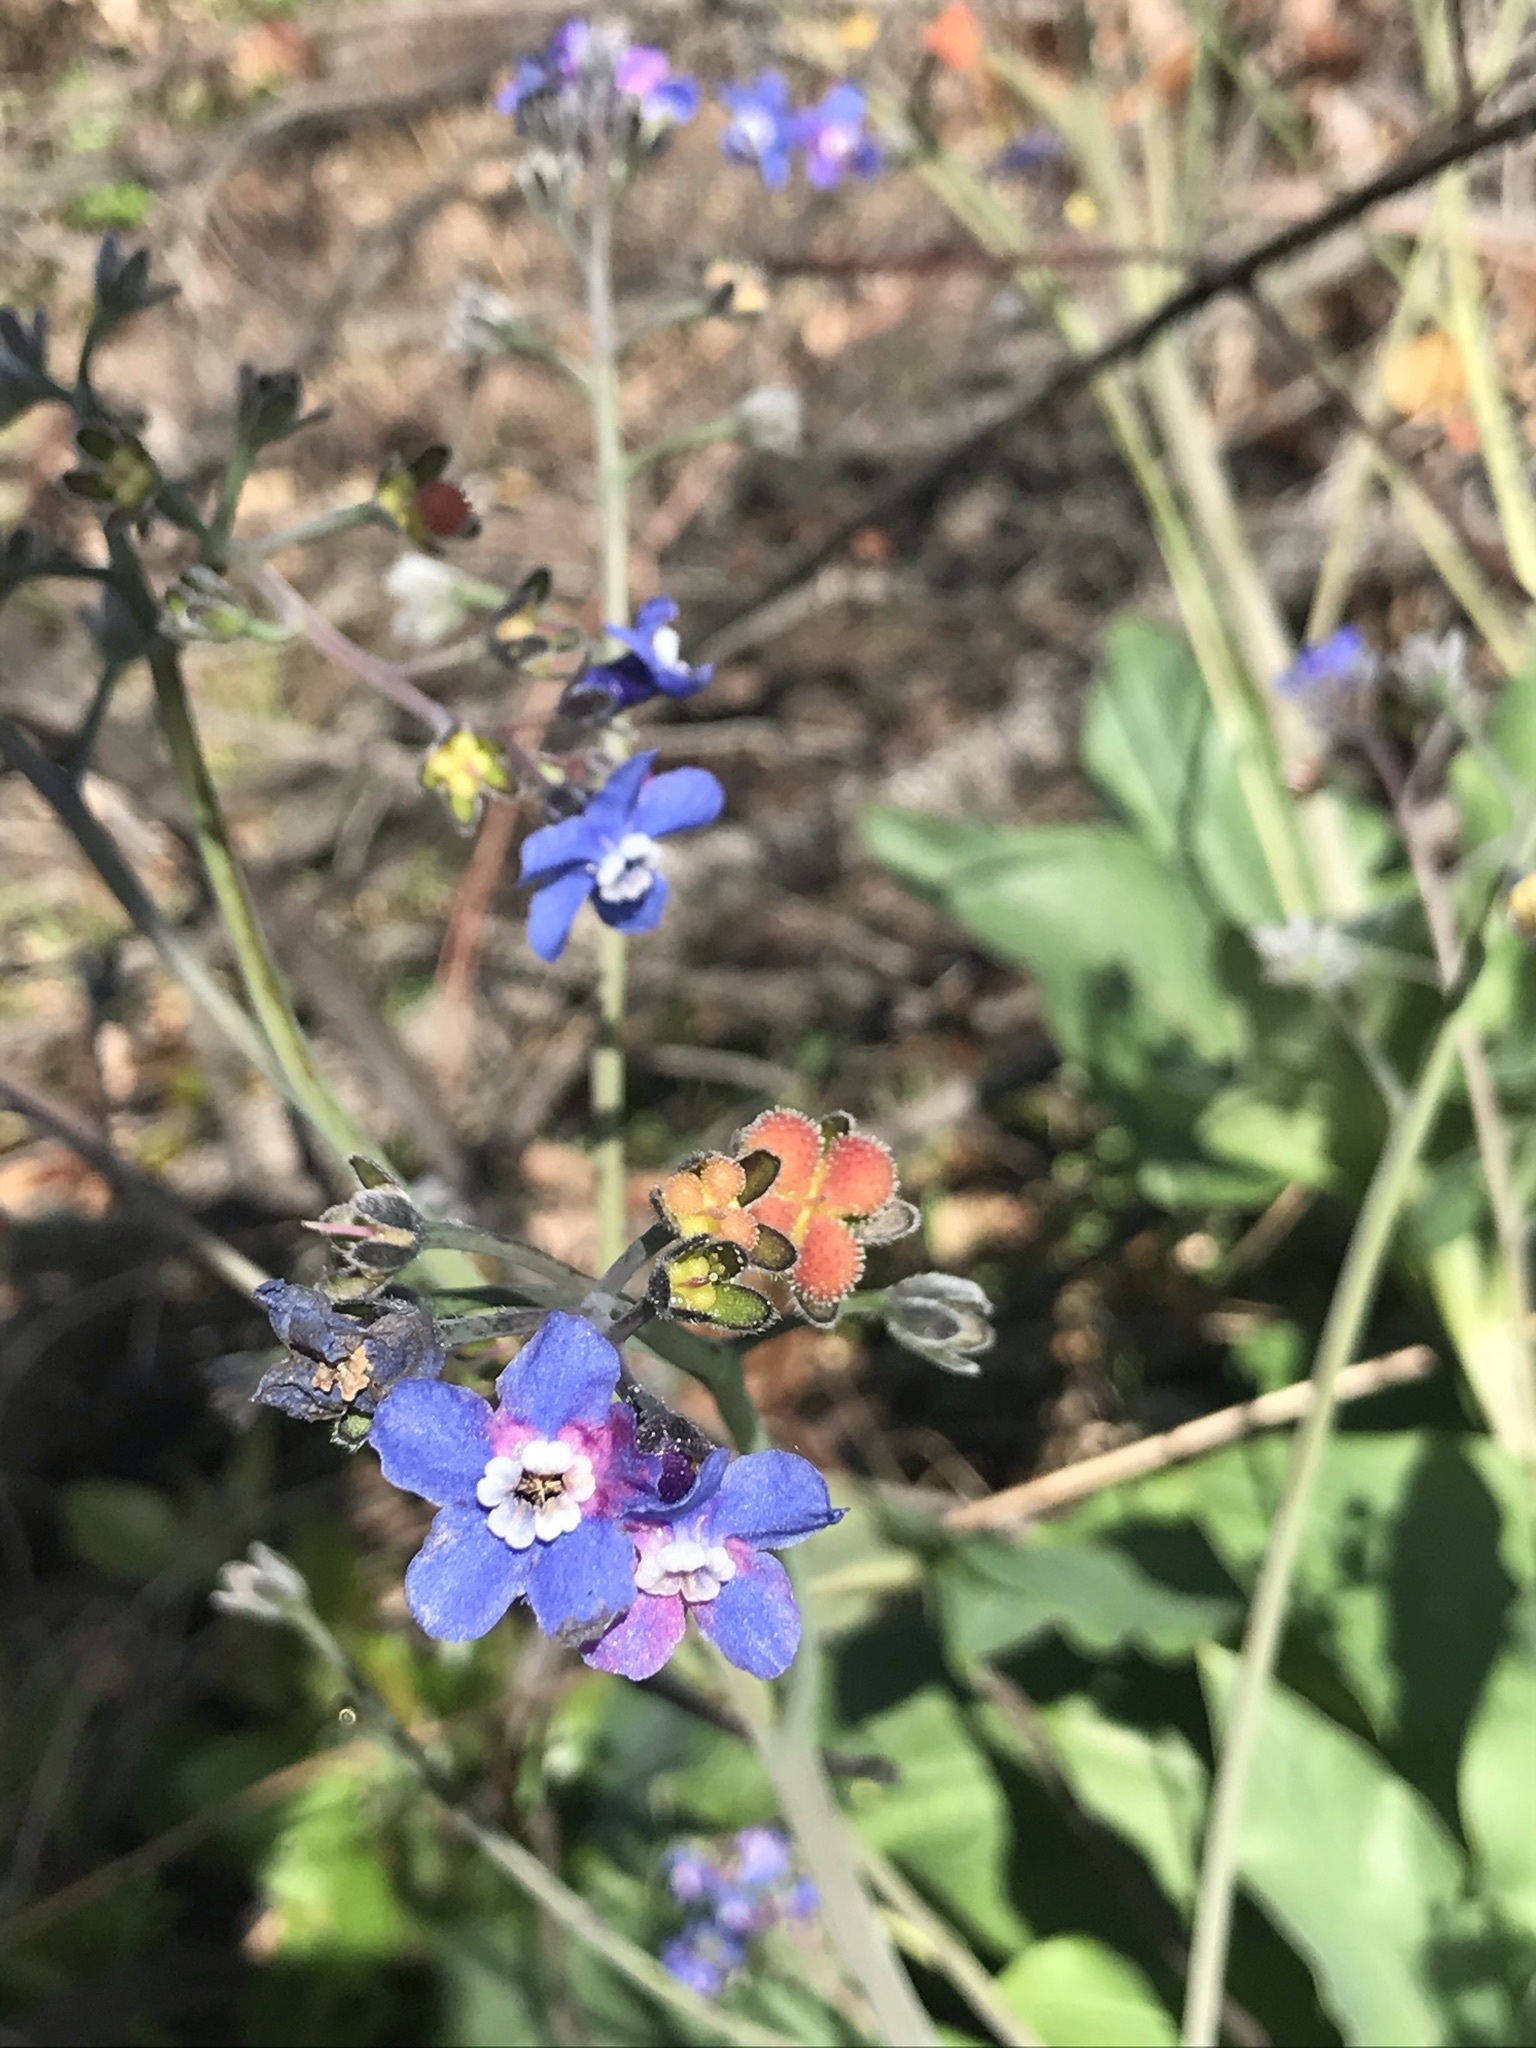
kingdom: Plantae
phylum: Tracheophyta
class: Magnoliopsida
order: Boraginales
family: Boraginaceae
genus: Adelinia
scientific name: Adelinia grande
